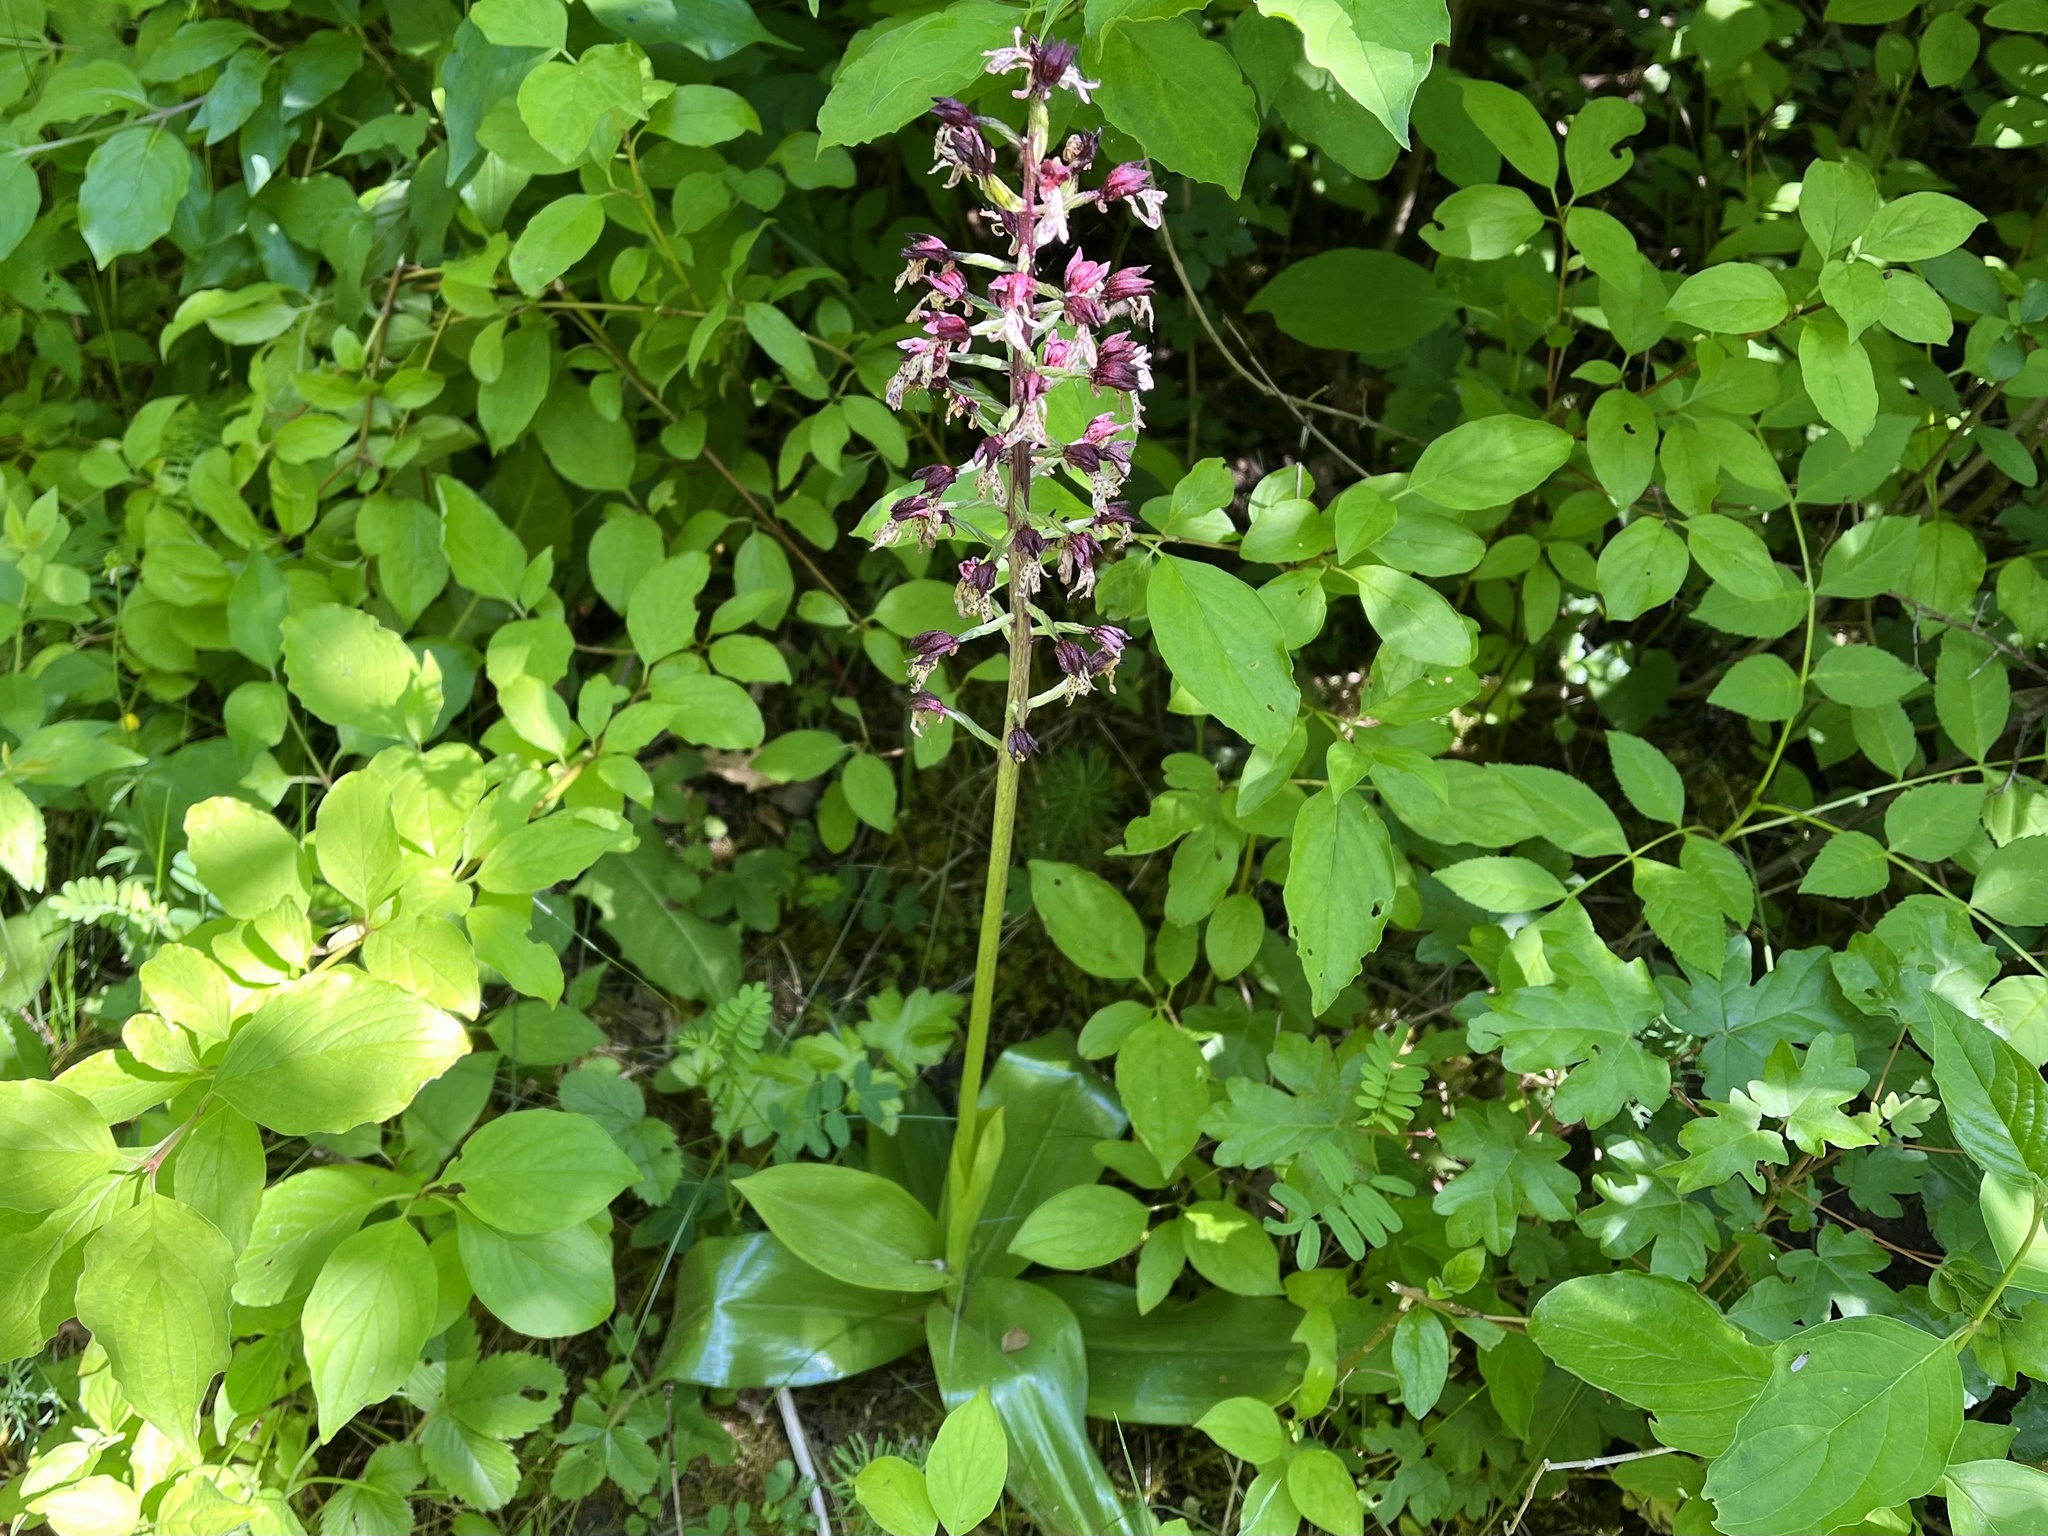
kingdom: Plantae
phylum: Tracheophyta
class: Liliopsida
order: Asparagales
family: Orchidaceae
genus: Orchis
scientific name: Orchis purpurea
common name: Lady orchid
